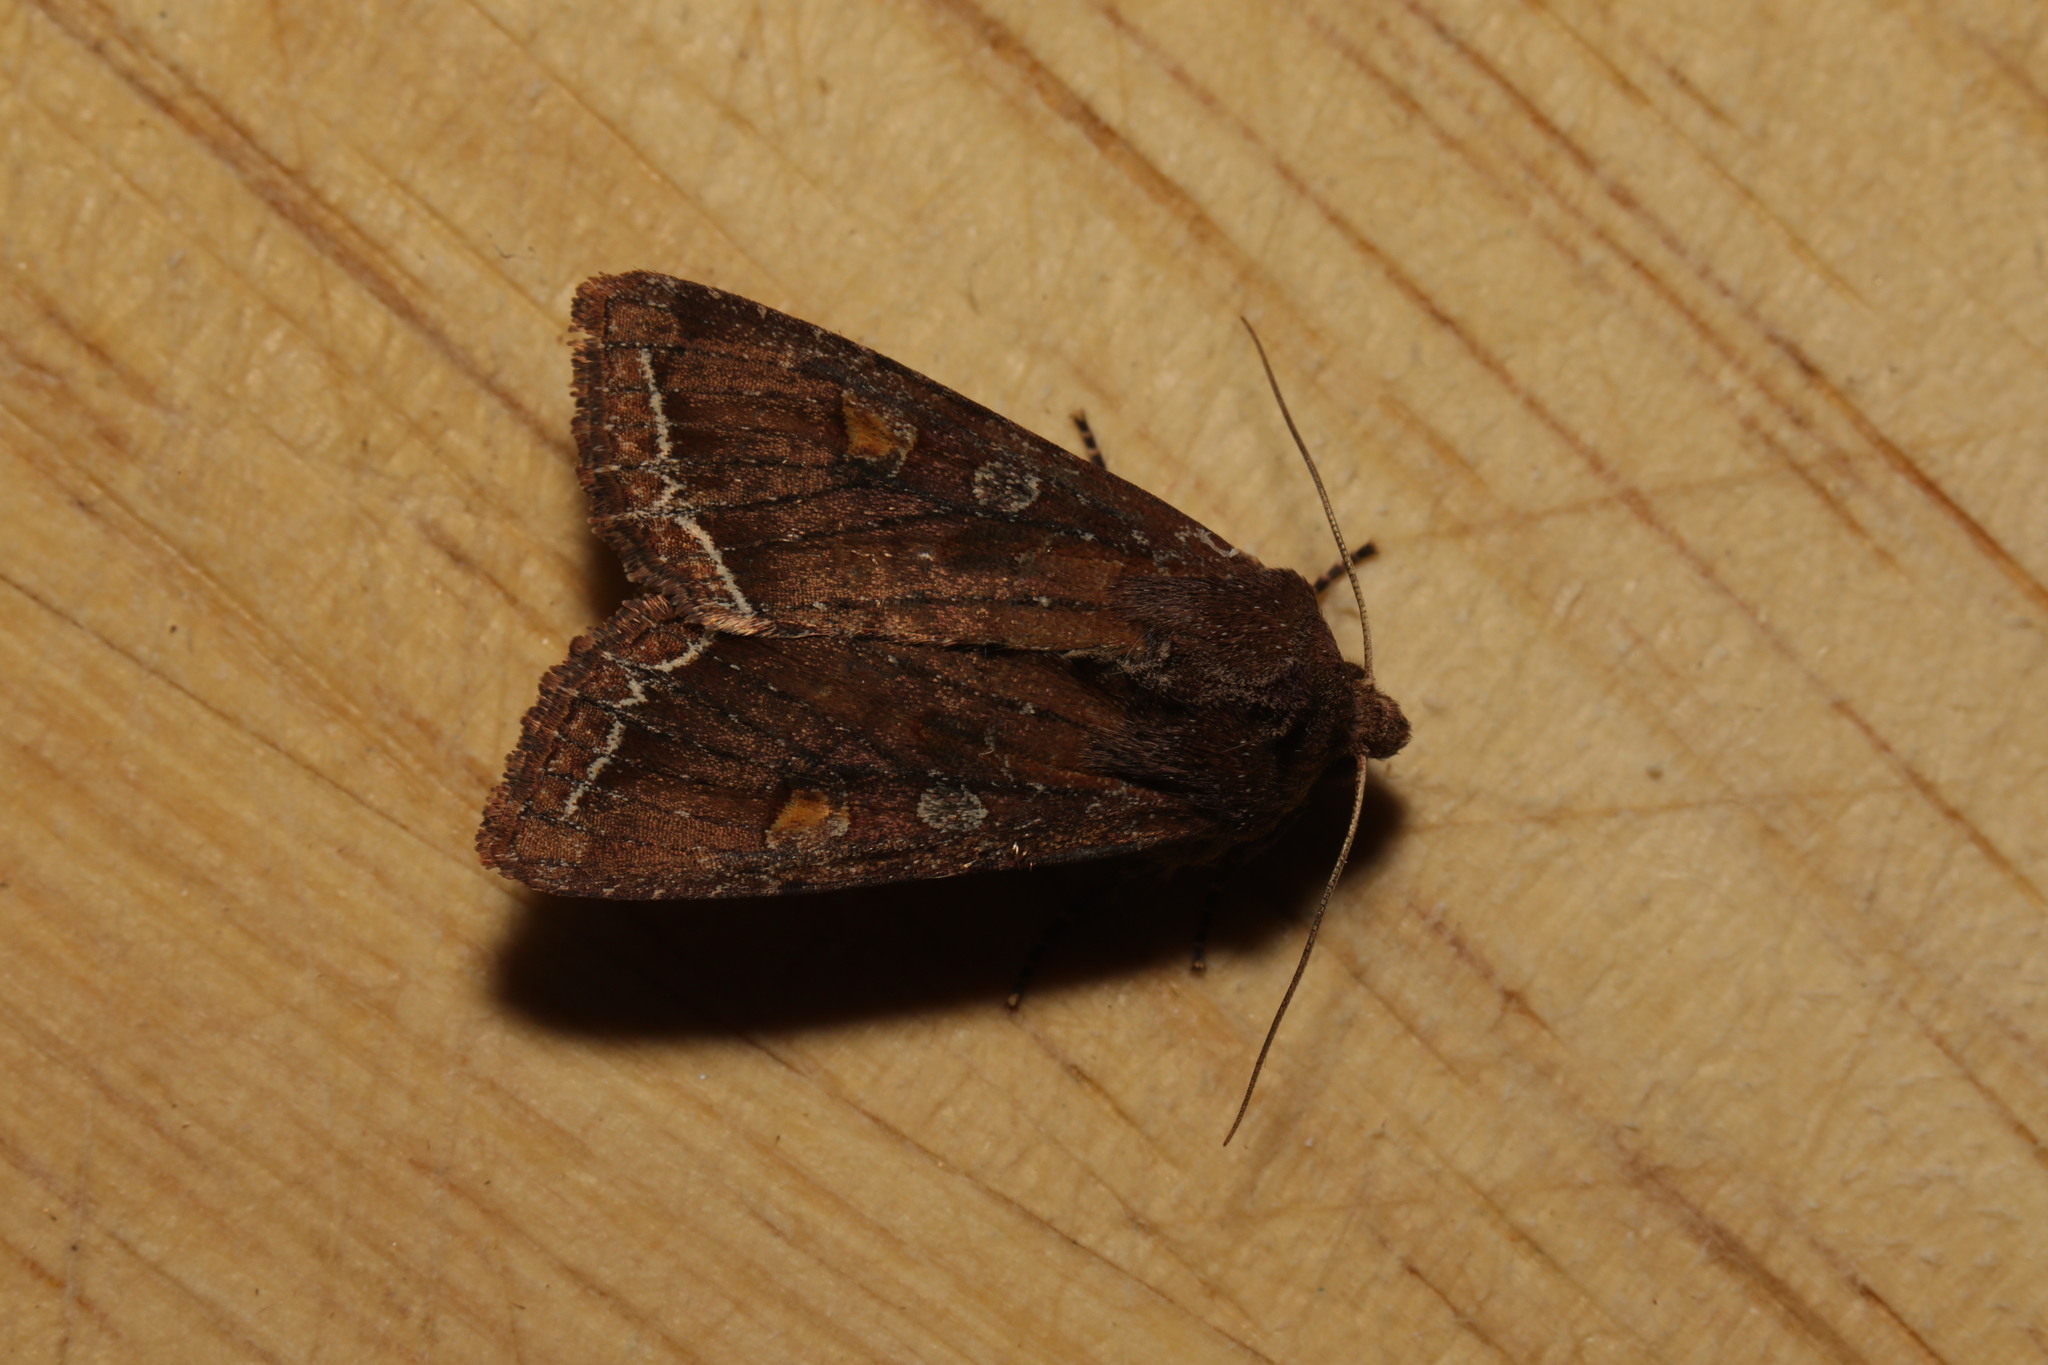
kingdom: Animalia
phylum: Arthropoda
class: Insecta
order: Lepidoptera
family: Noctuidae
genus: Lacanobia
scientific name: Lacanobia oleracea
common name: Bright-line brown-eye
